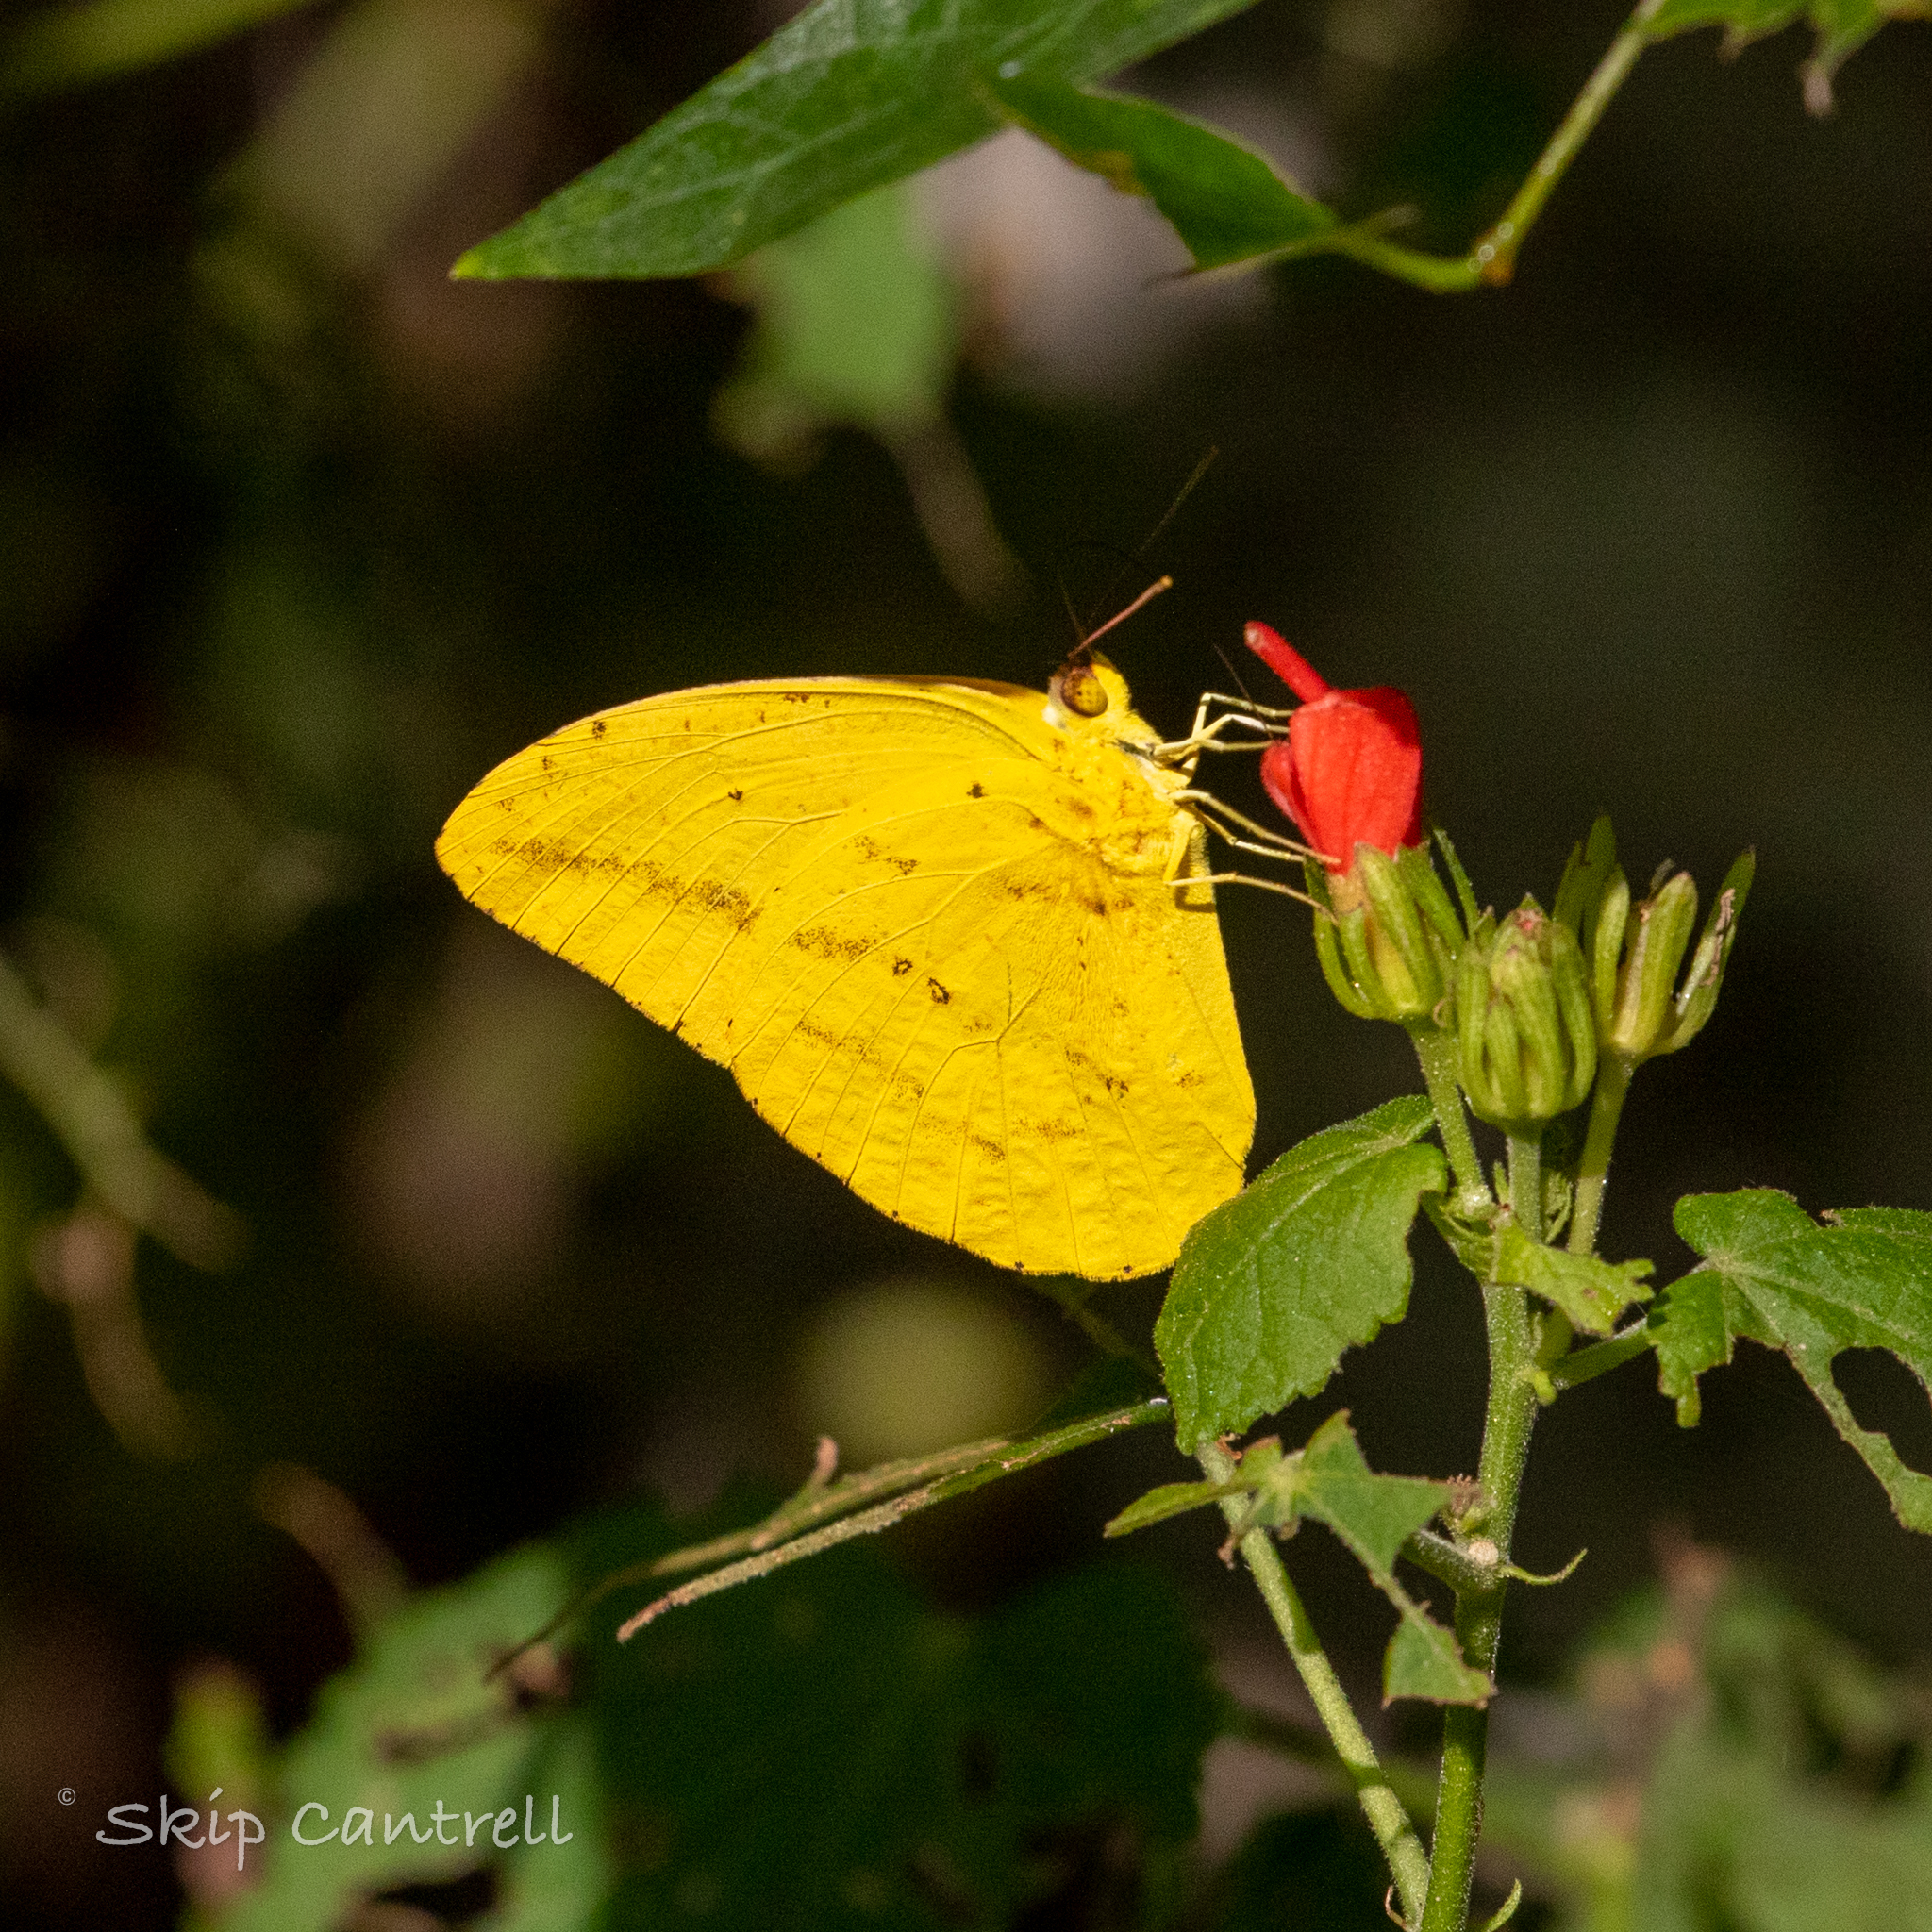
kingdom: Animalia
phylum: Arthropoda
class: Insecta
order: Lepidoptera
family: Pieridae
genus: Phoebis
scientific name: Phoebis agarithe
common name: Large orange sulphur
